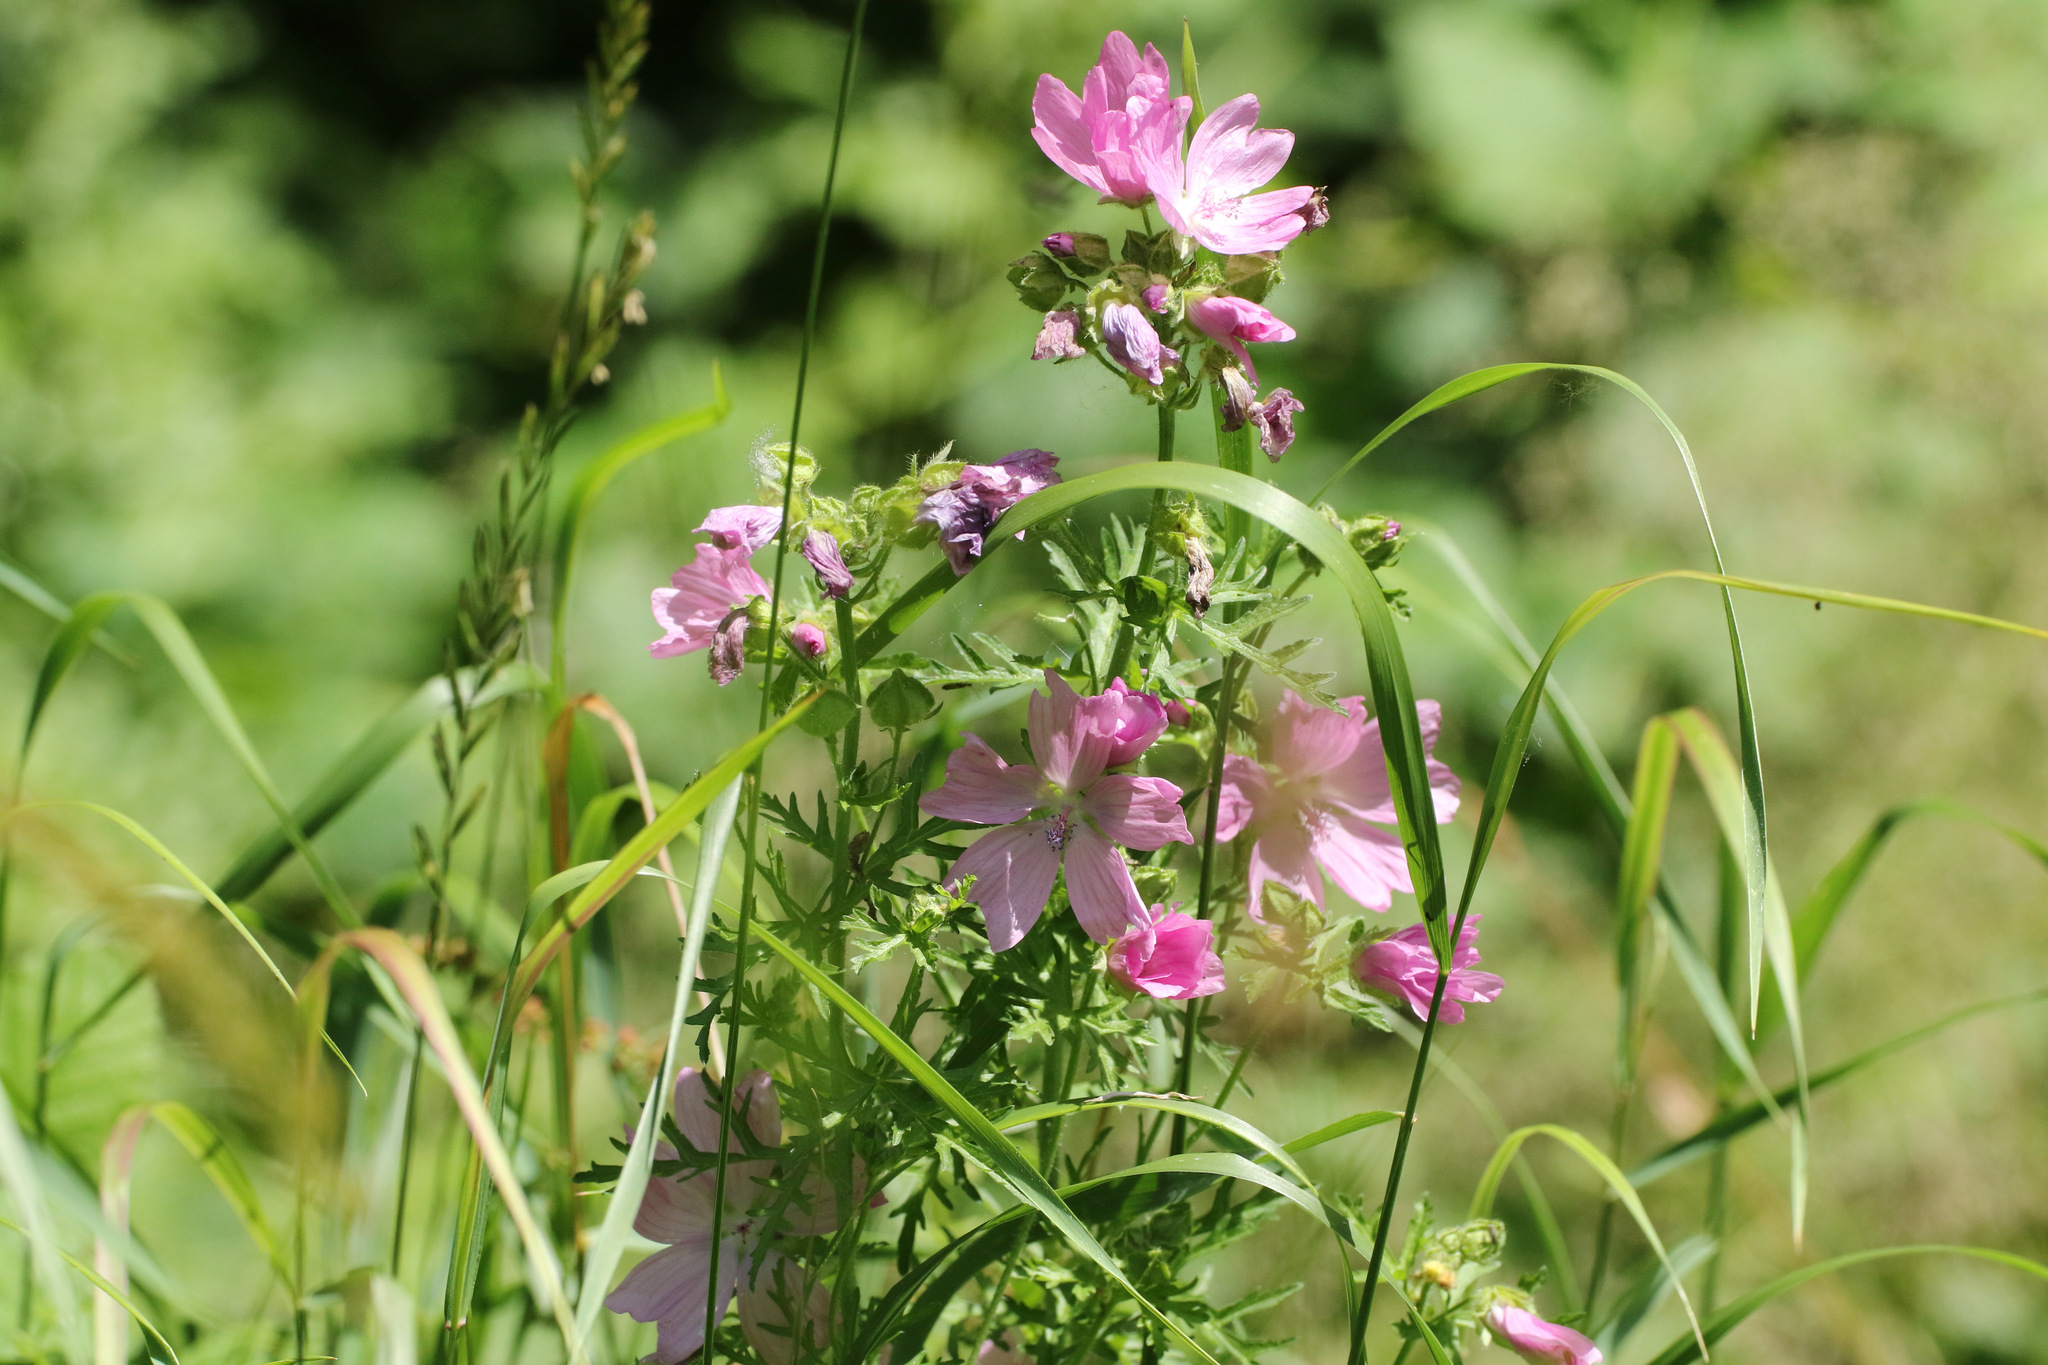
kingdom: Plantae
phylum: Tracheophyta
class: Magnoliopsida
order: Malvales
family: Malvaceae
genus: Malva
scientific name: Malva moschata
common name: Musk mallow
